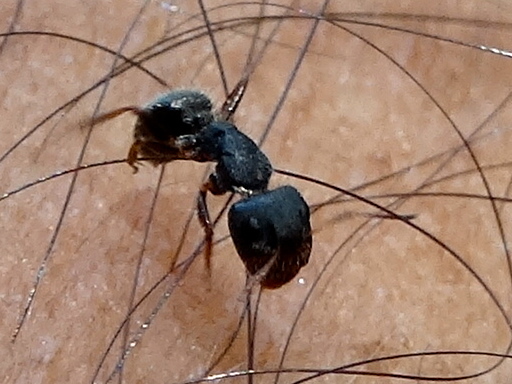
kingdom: Animalia
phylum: Arthropoda
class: Insecta
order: Hymenoptera
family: Formicidae
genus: Camponotus
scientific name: Camponotus
